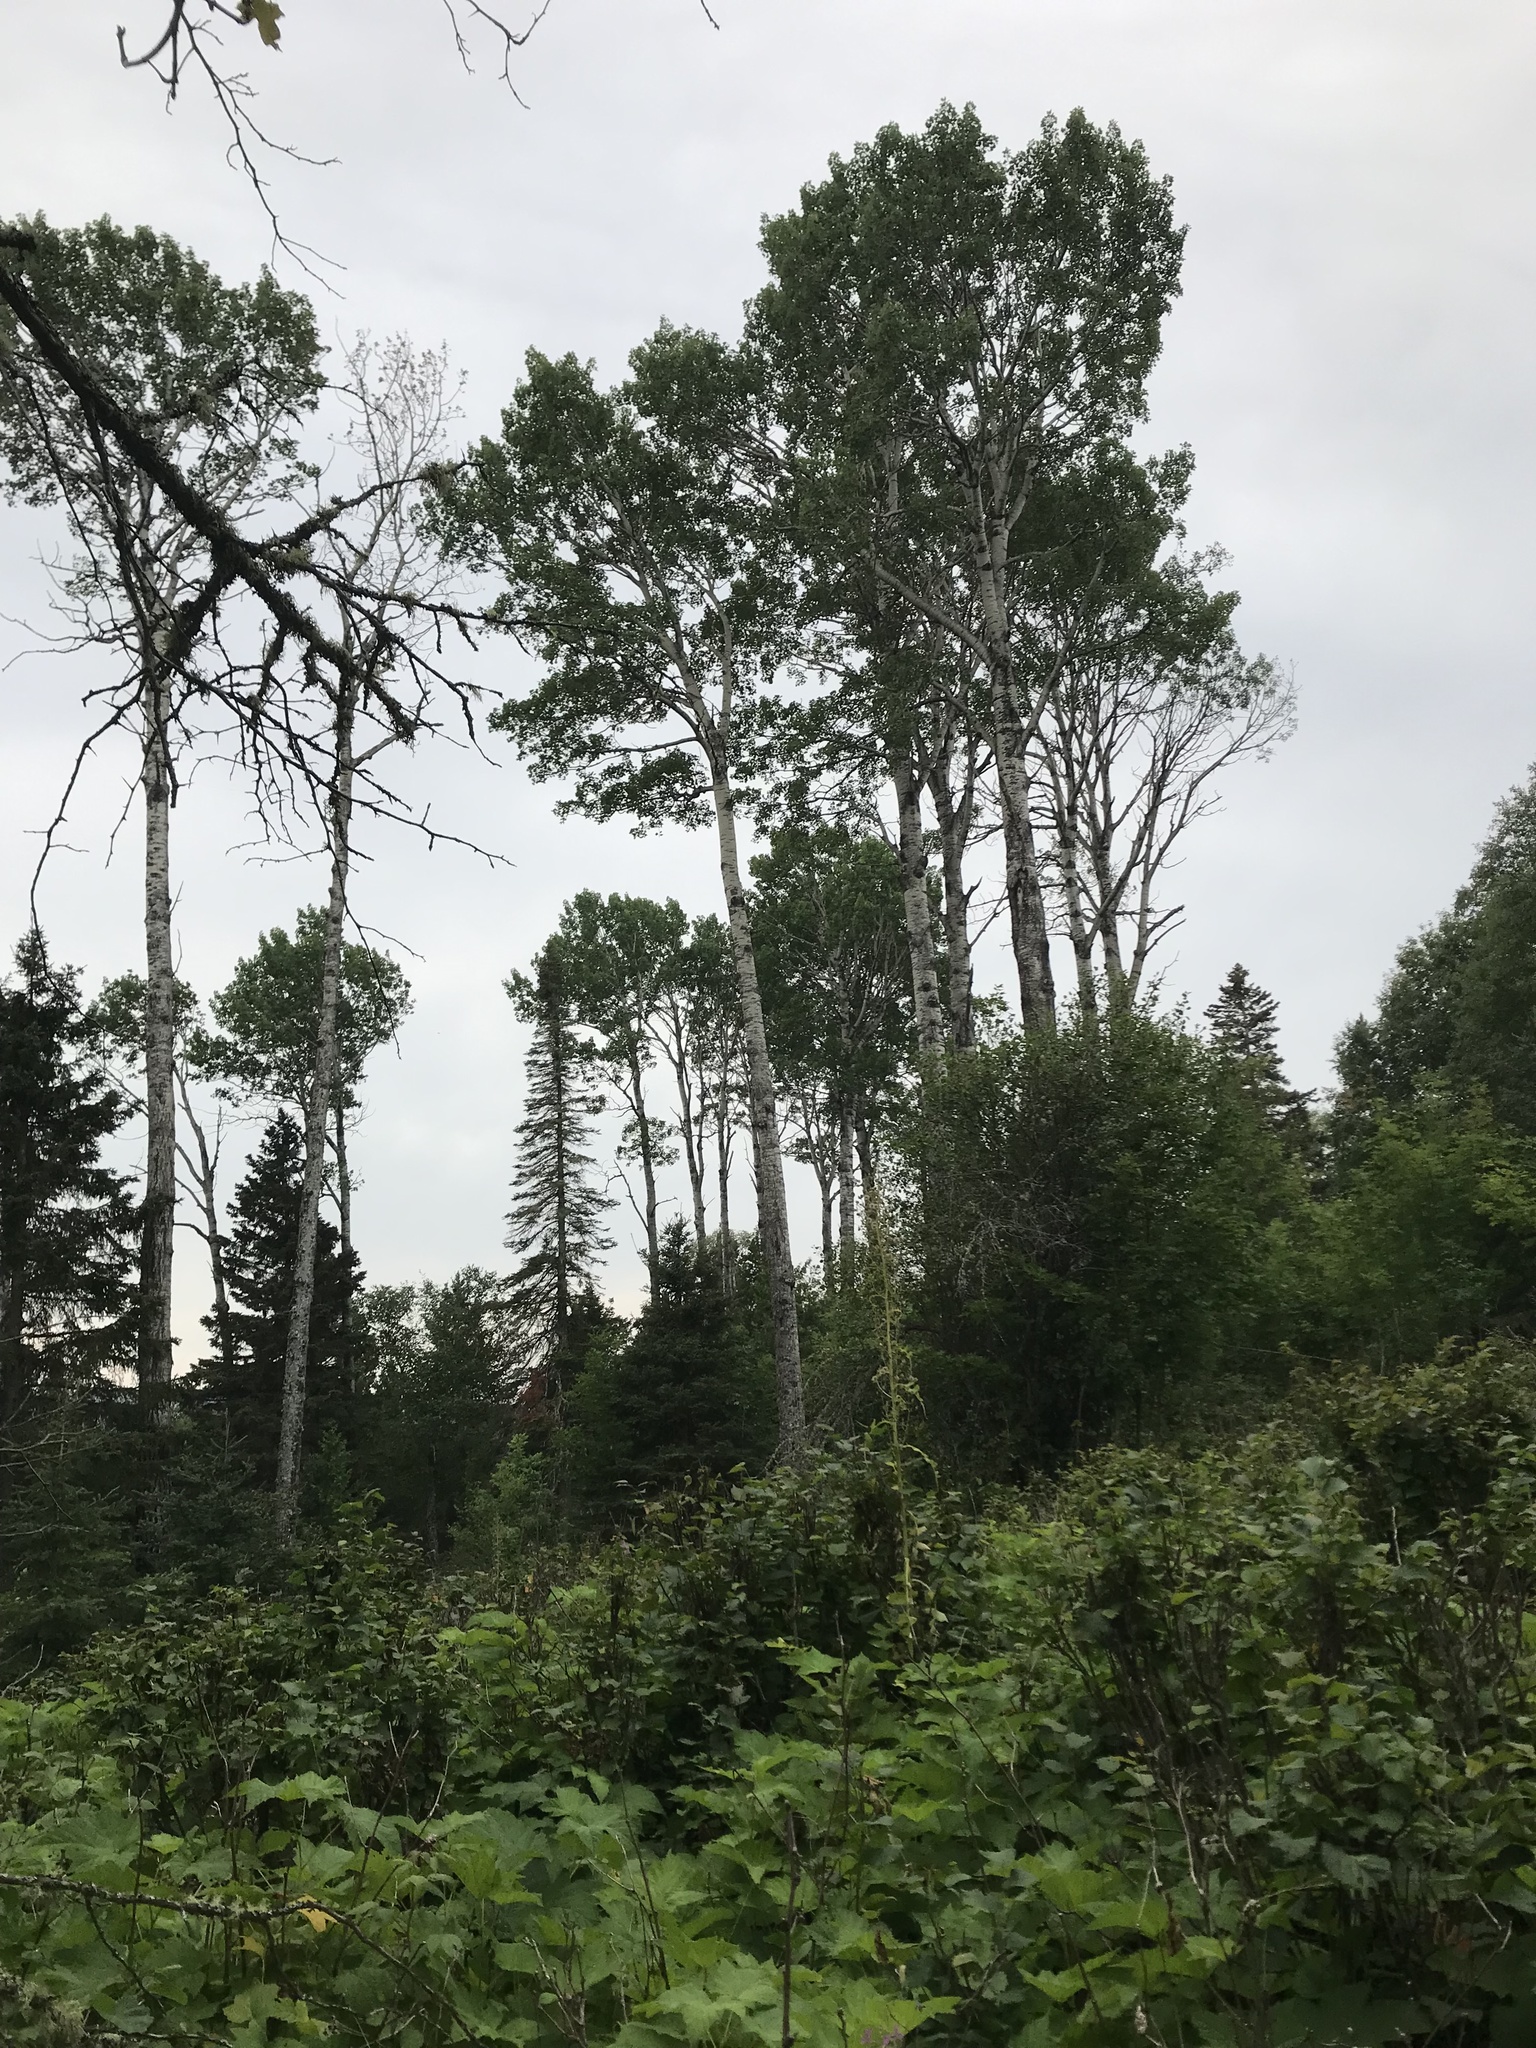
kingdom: Plantae
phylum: Tracheophyta
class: Magnoliopsida
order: Malpighiales
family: Salicaceae
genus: Populus
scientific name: Populus tremuloides
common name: Quaking aspen
